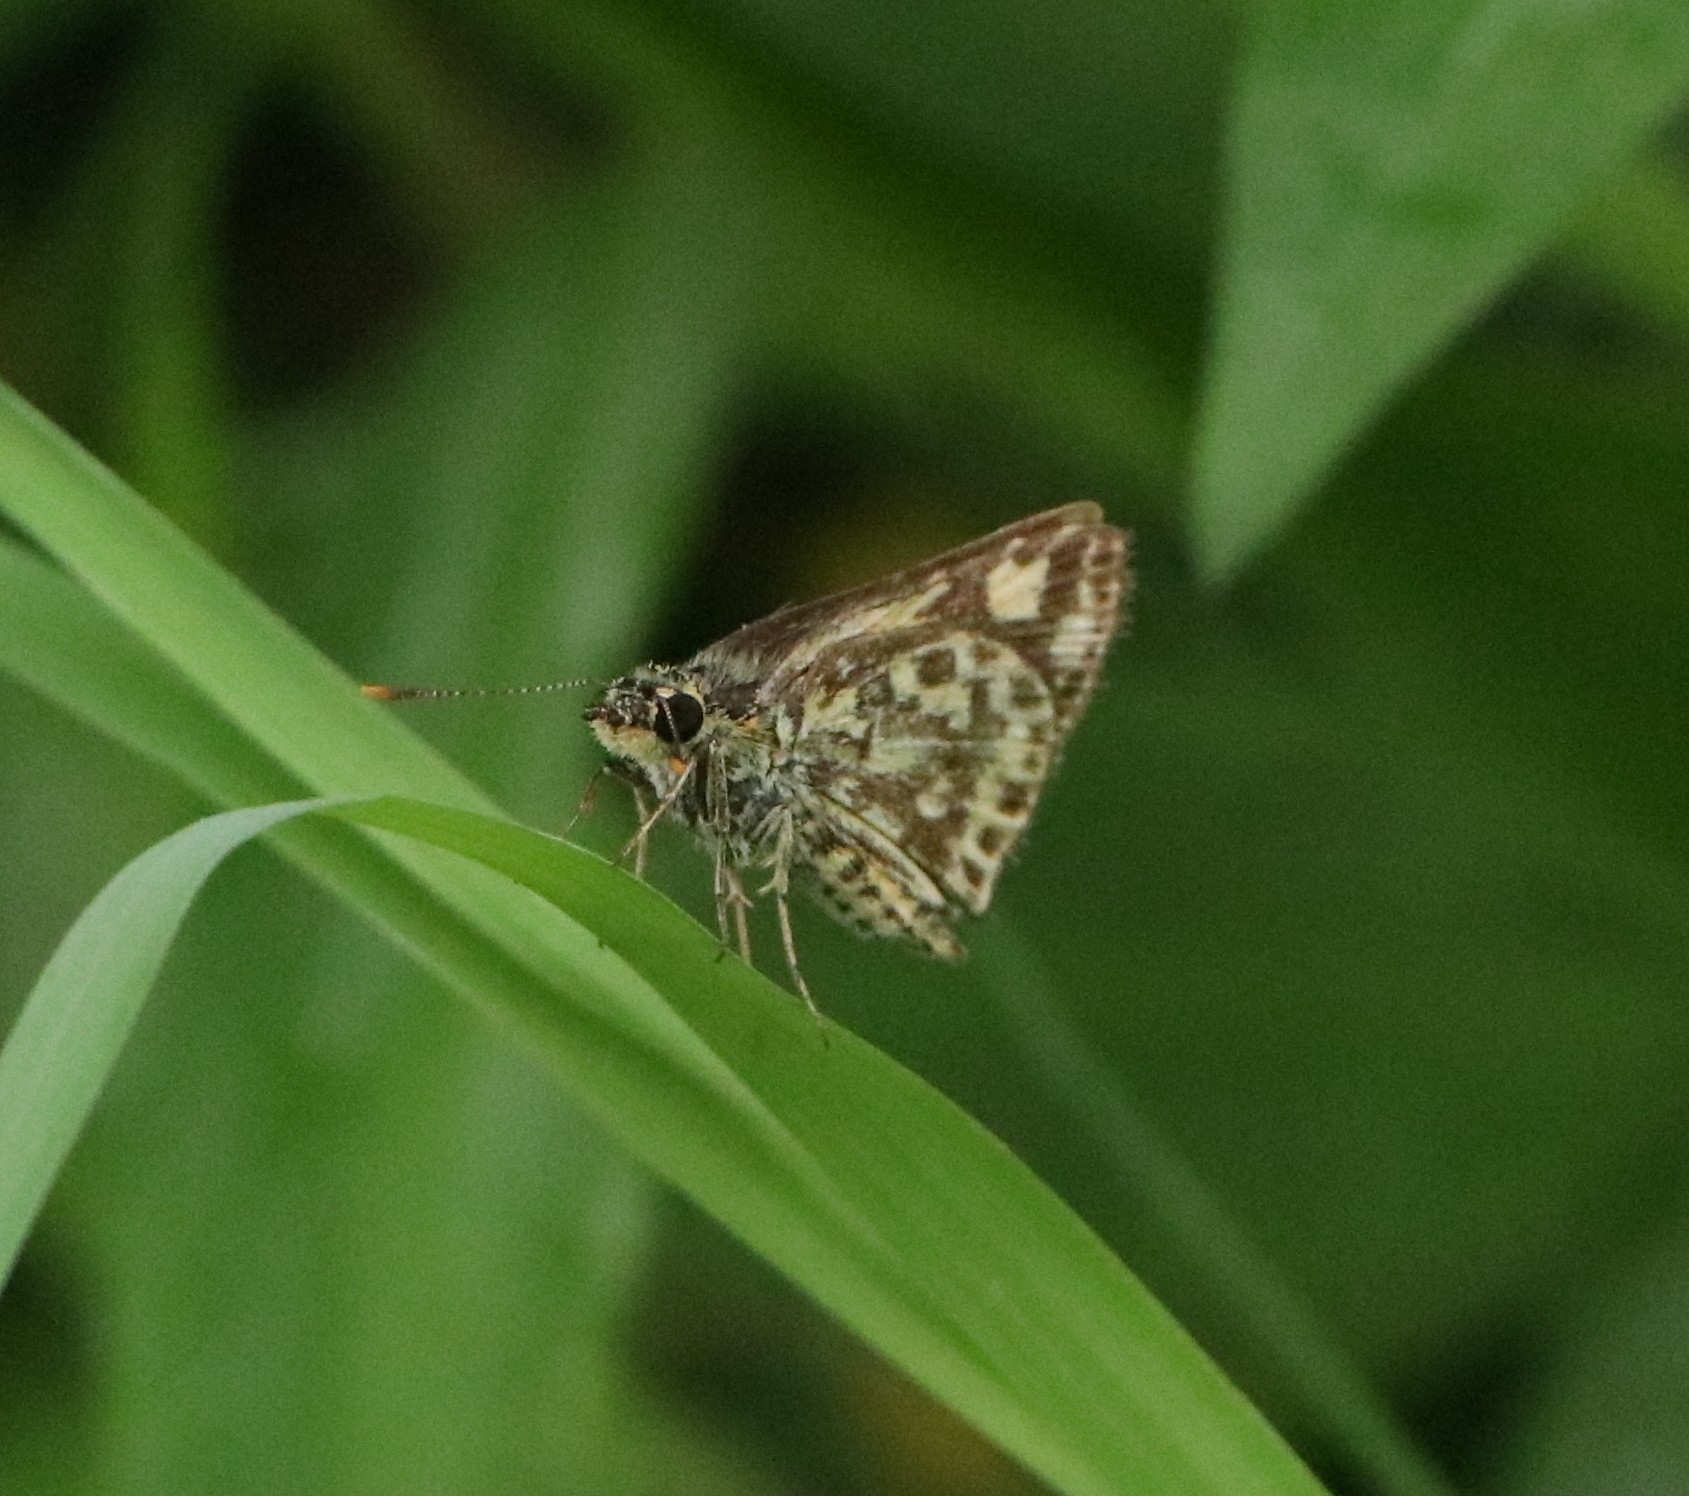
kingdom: Animalia
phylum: Arthropoda
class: Insecta
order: Lepidoptera
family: Hesperiidae
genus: Ampittia
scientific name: Ampittia dioscorides
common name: Common bush hopper
